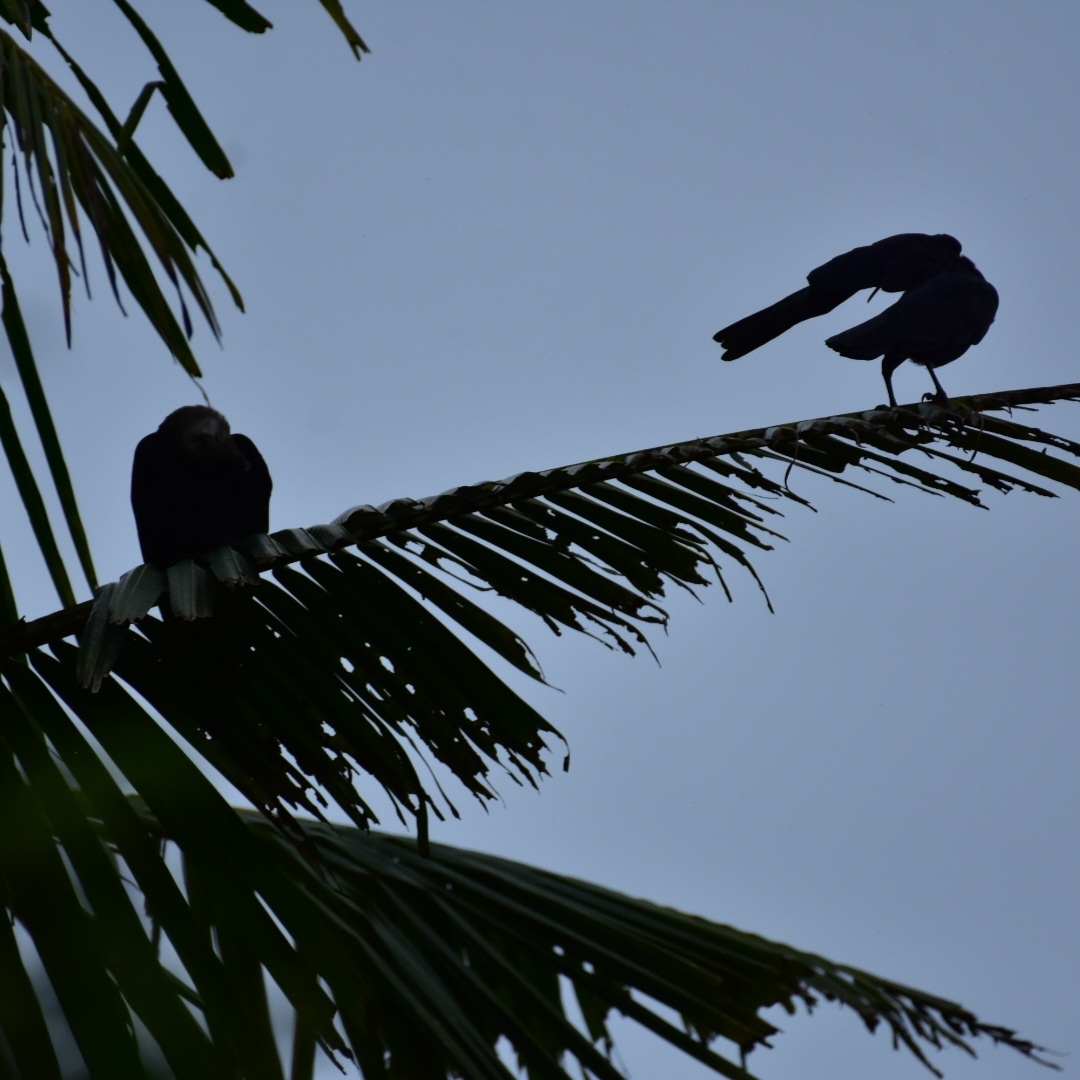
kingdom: Animalia
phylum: Chordata
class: Aves
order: Passeriformes
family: Corvidae
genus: Corvus
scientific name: Corvus splendens
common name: House crow
